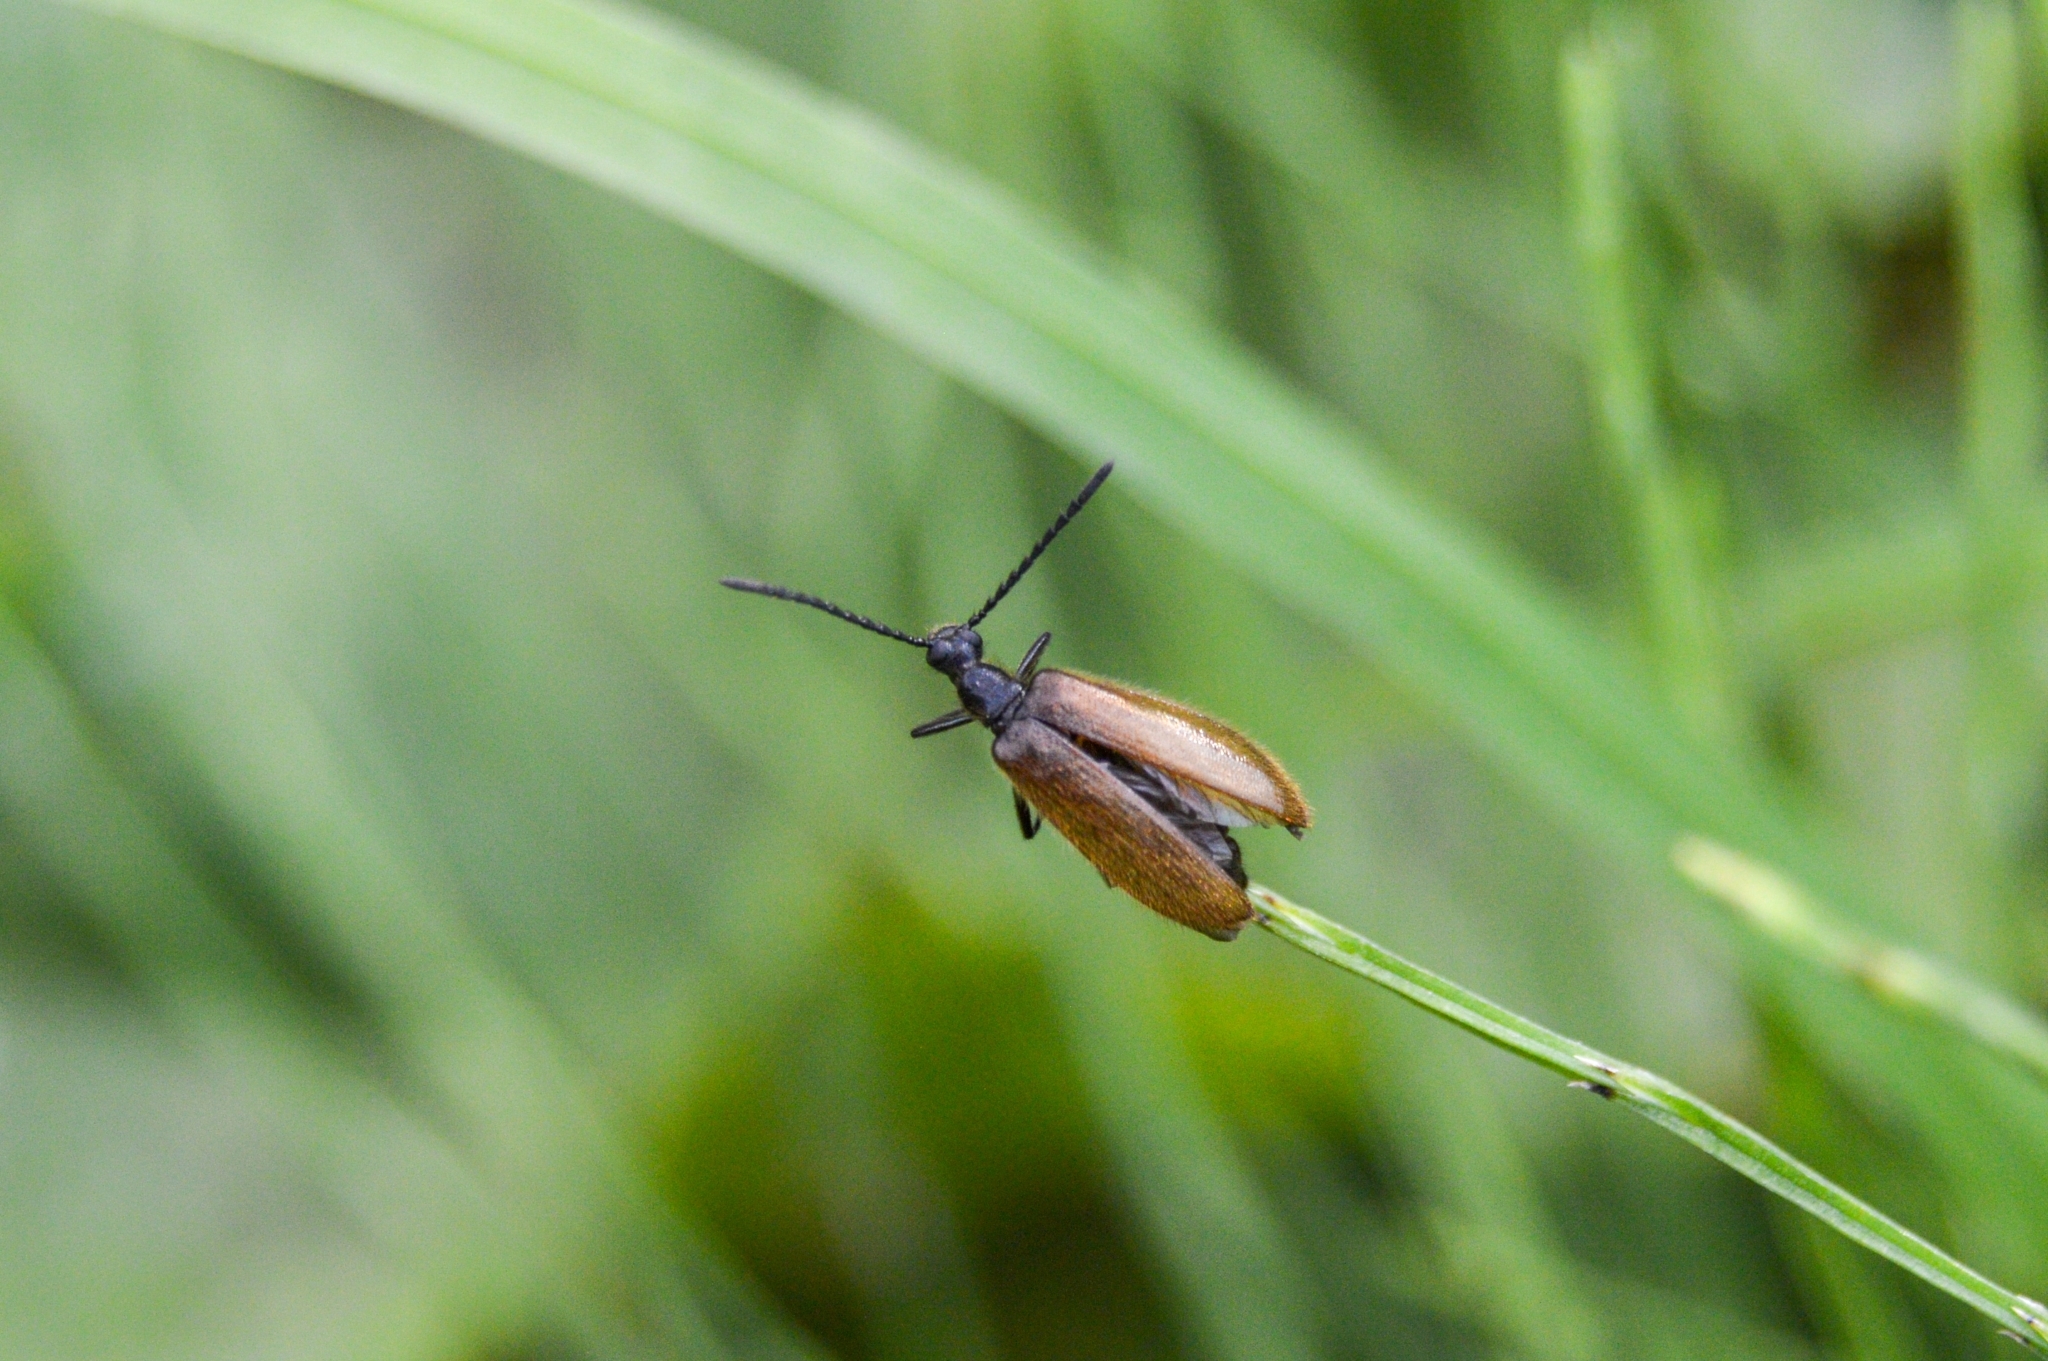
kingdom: Animalia
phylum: Arthropoda
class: Insecta
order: Coleoptera
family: Tenebrionidae
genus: Lagria
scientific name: Lagria hirta
